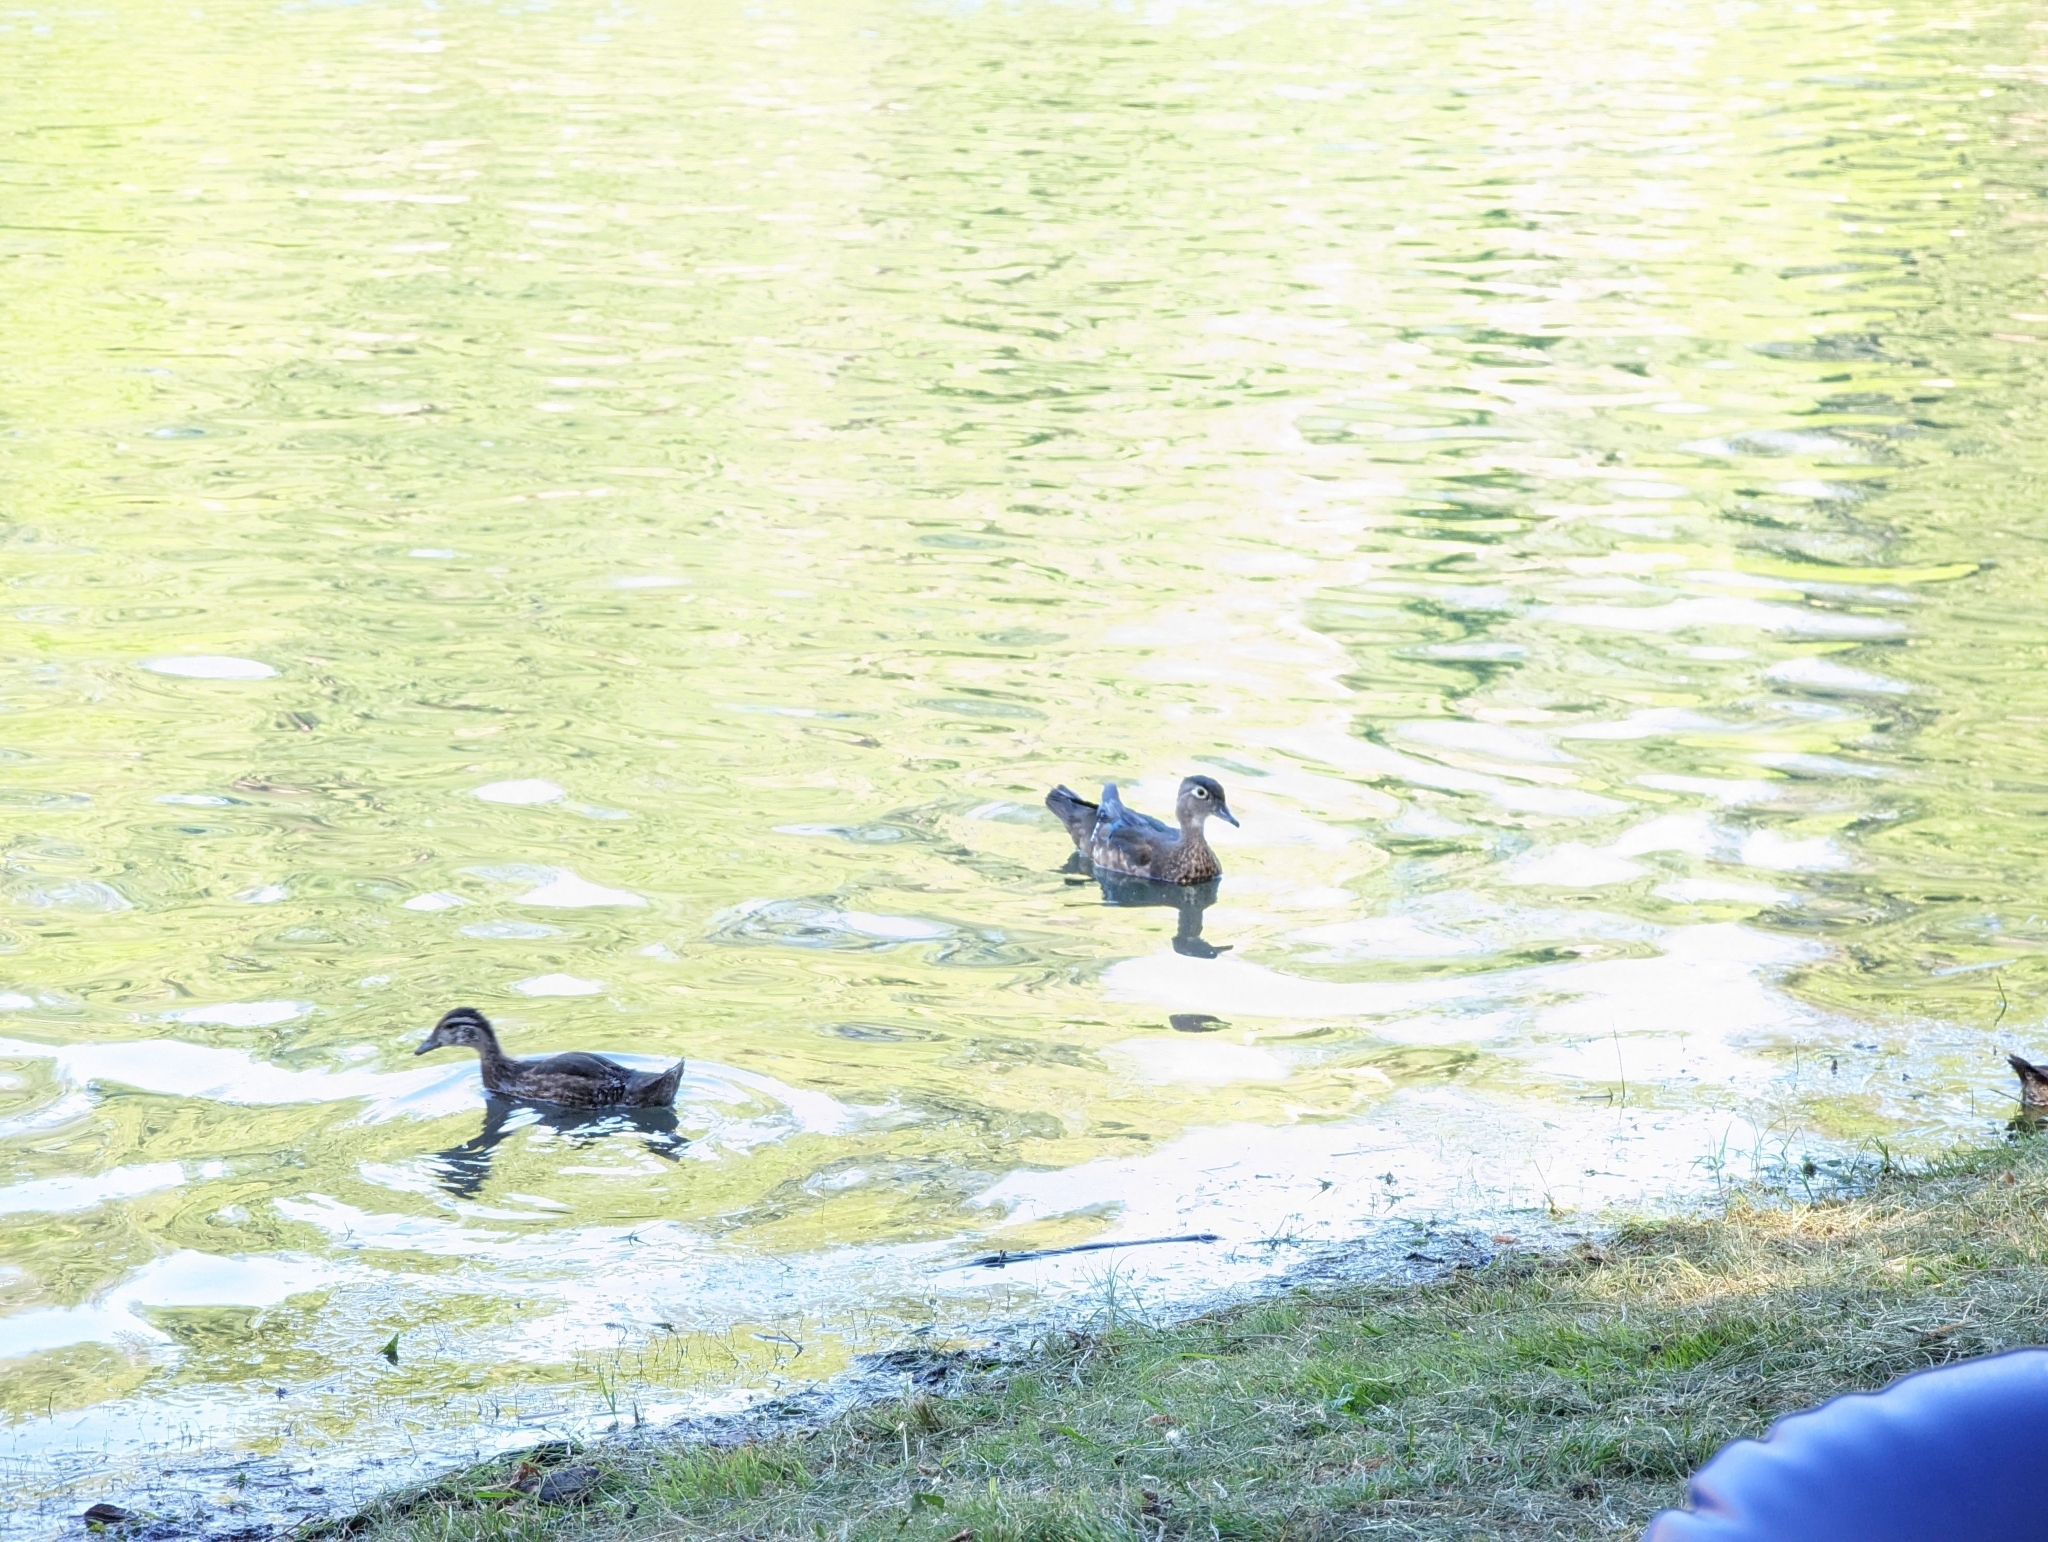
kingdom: Animalia
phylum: Chordata
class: Aves
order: Anseriformes
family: Anatidae
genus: Aix
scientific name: Aix sponsa
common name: Wood duck
